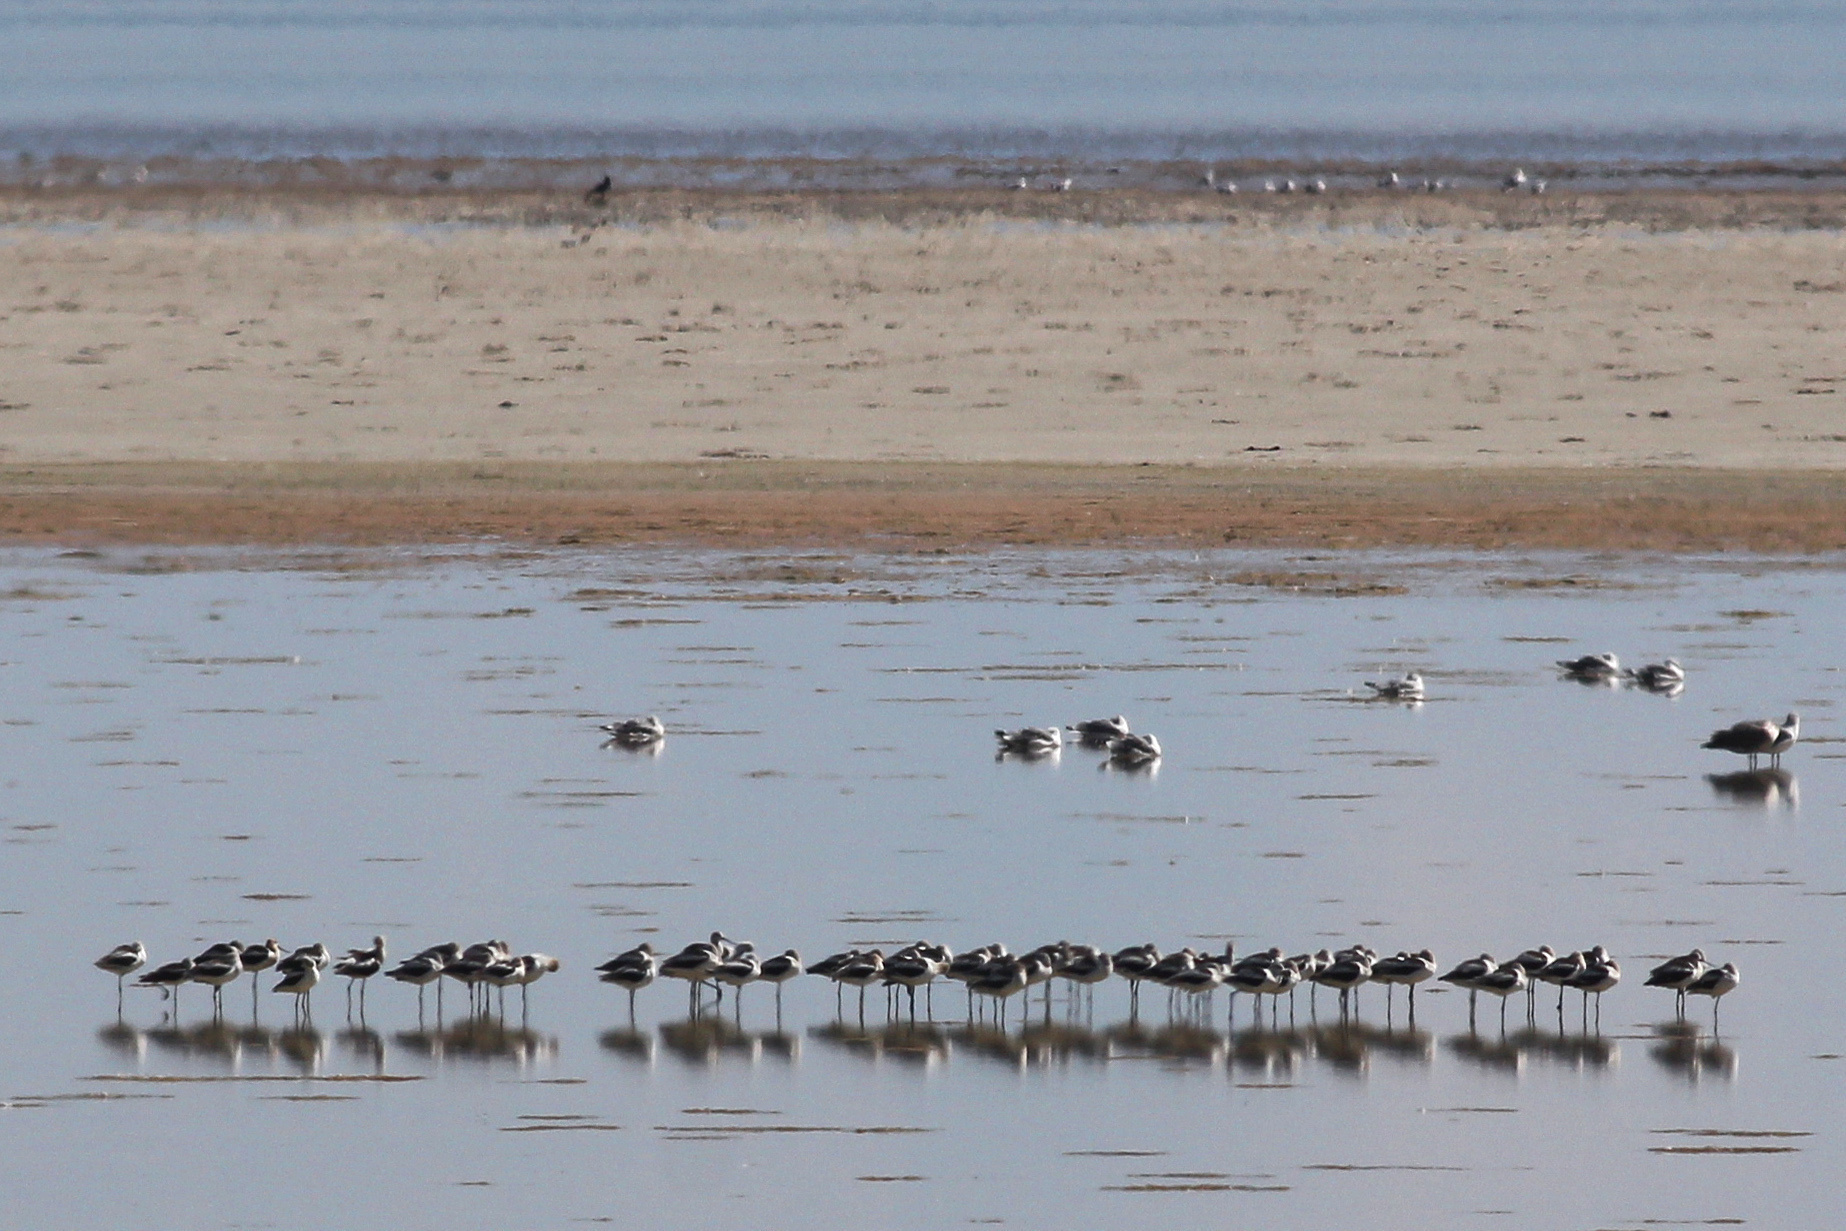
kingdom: Animalia
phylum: Chordata
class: Aves
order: Charadriiformes
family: Recurvirostridae
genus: Recurvirostra
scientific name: Recurvirostra americana
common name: American avocet
